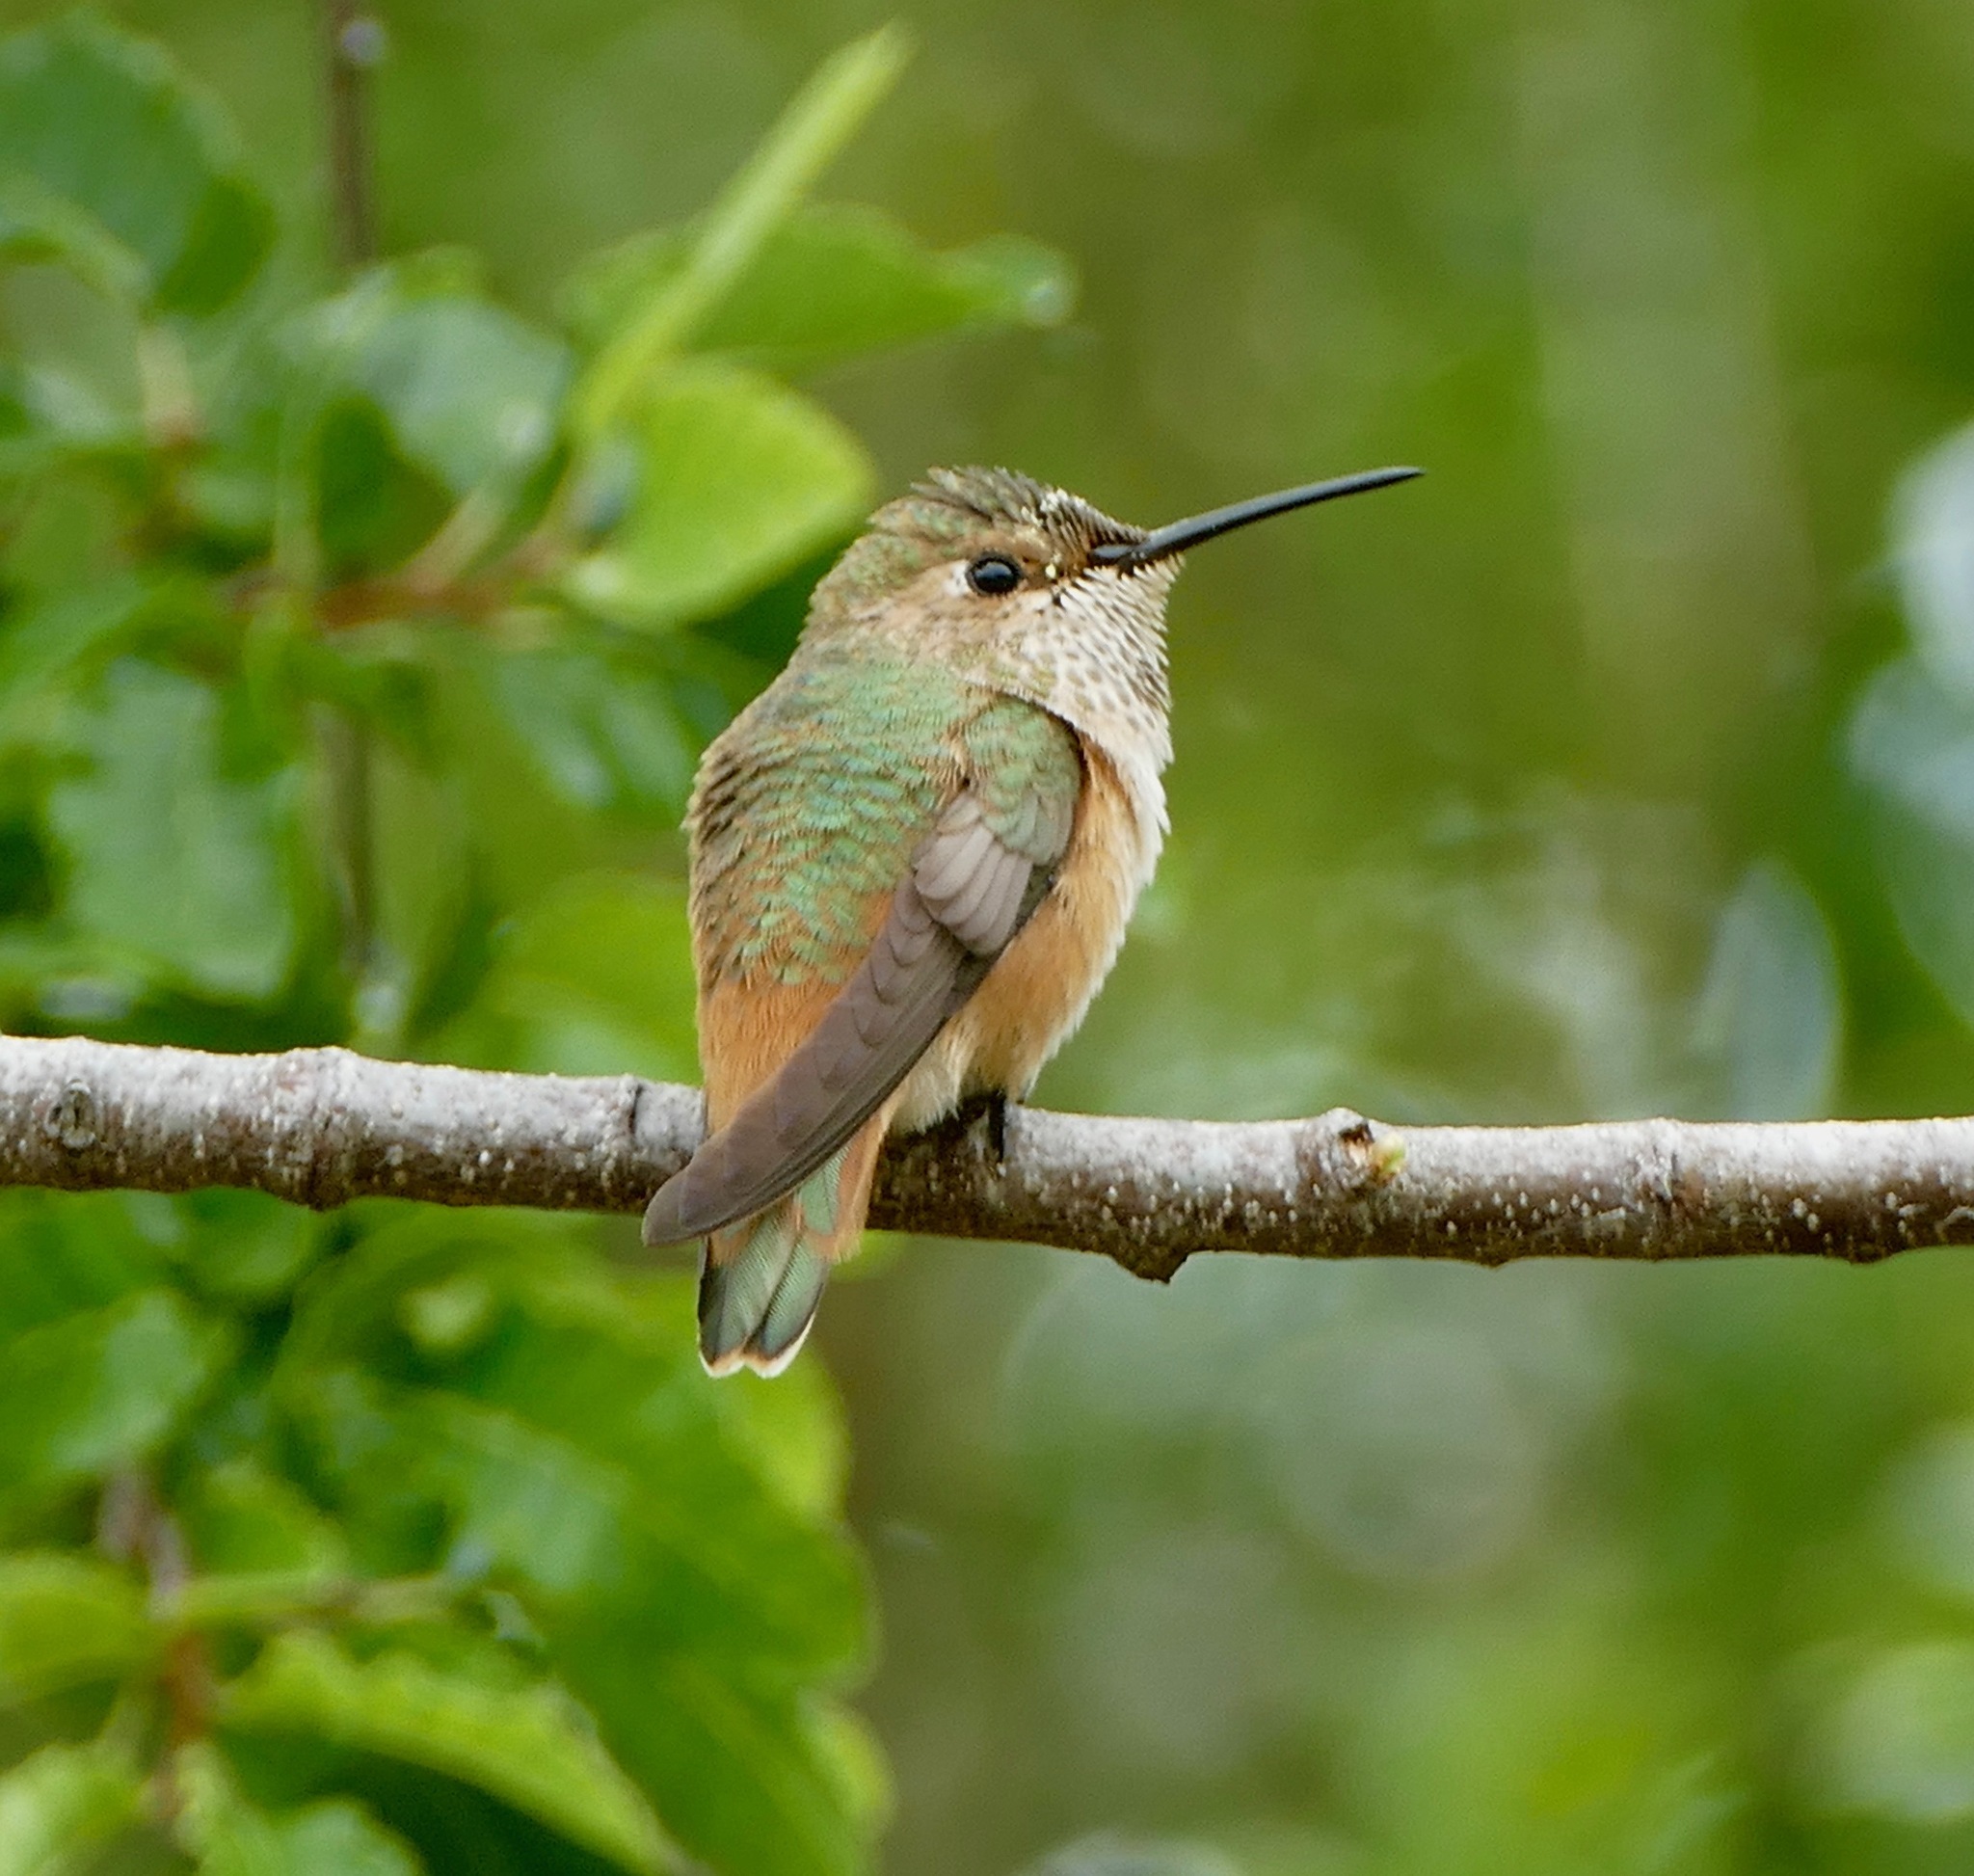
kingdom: Animalia
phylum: Chordata
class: Aves
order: Apodiformes
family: Trochilidae
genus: Selasphorus
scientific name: Selasphorus sasin
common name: Allen's hummingbird
